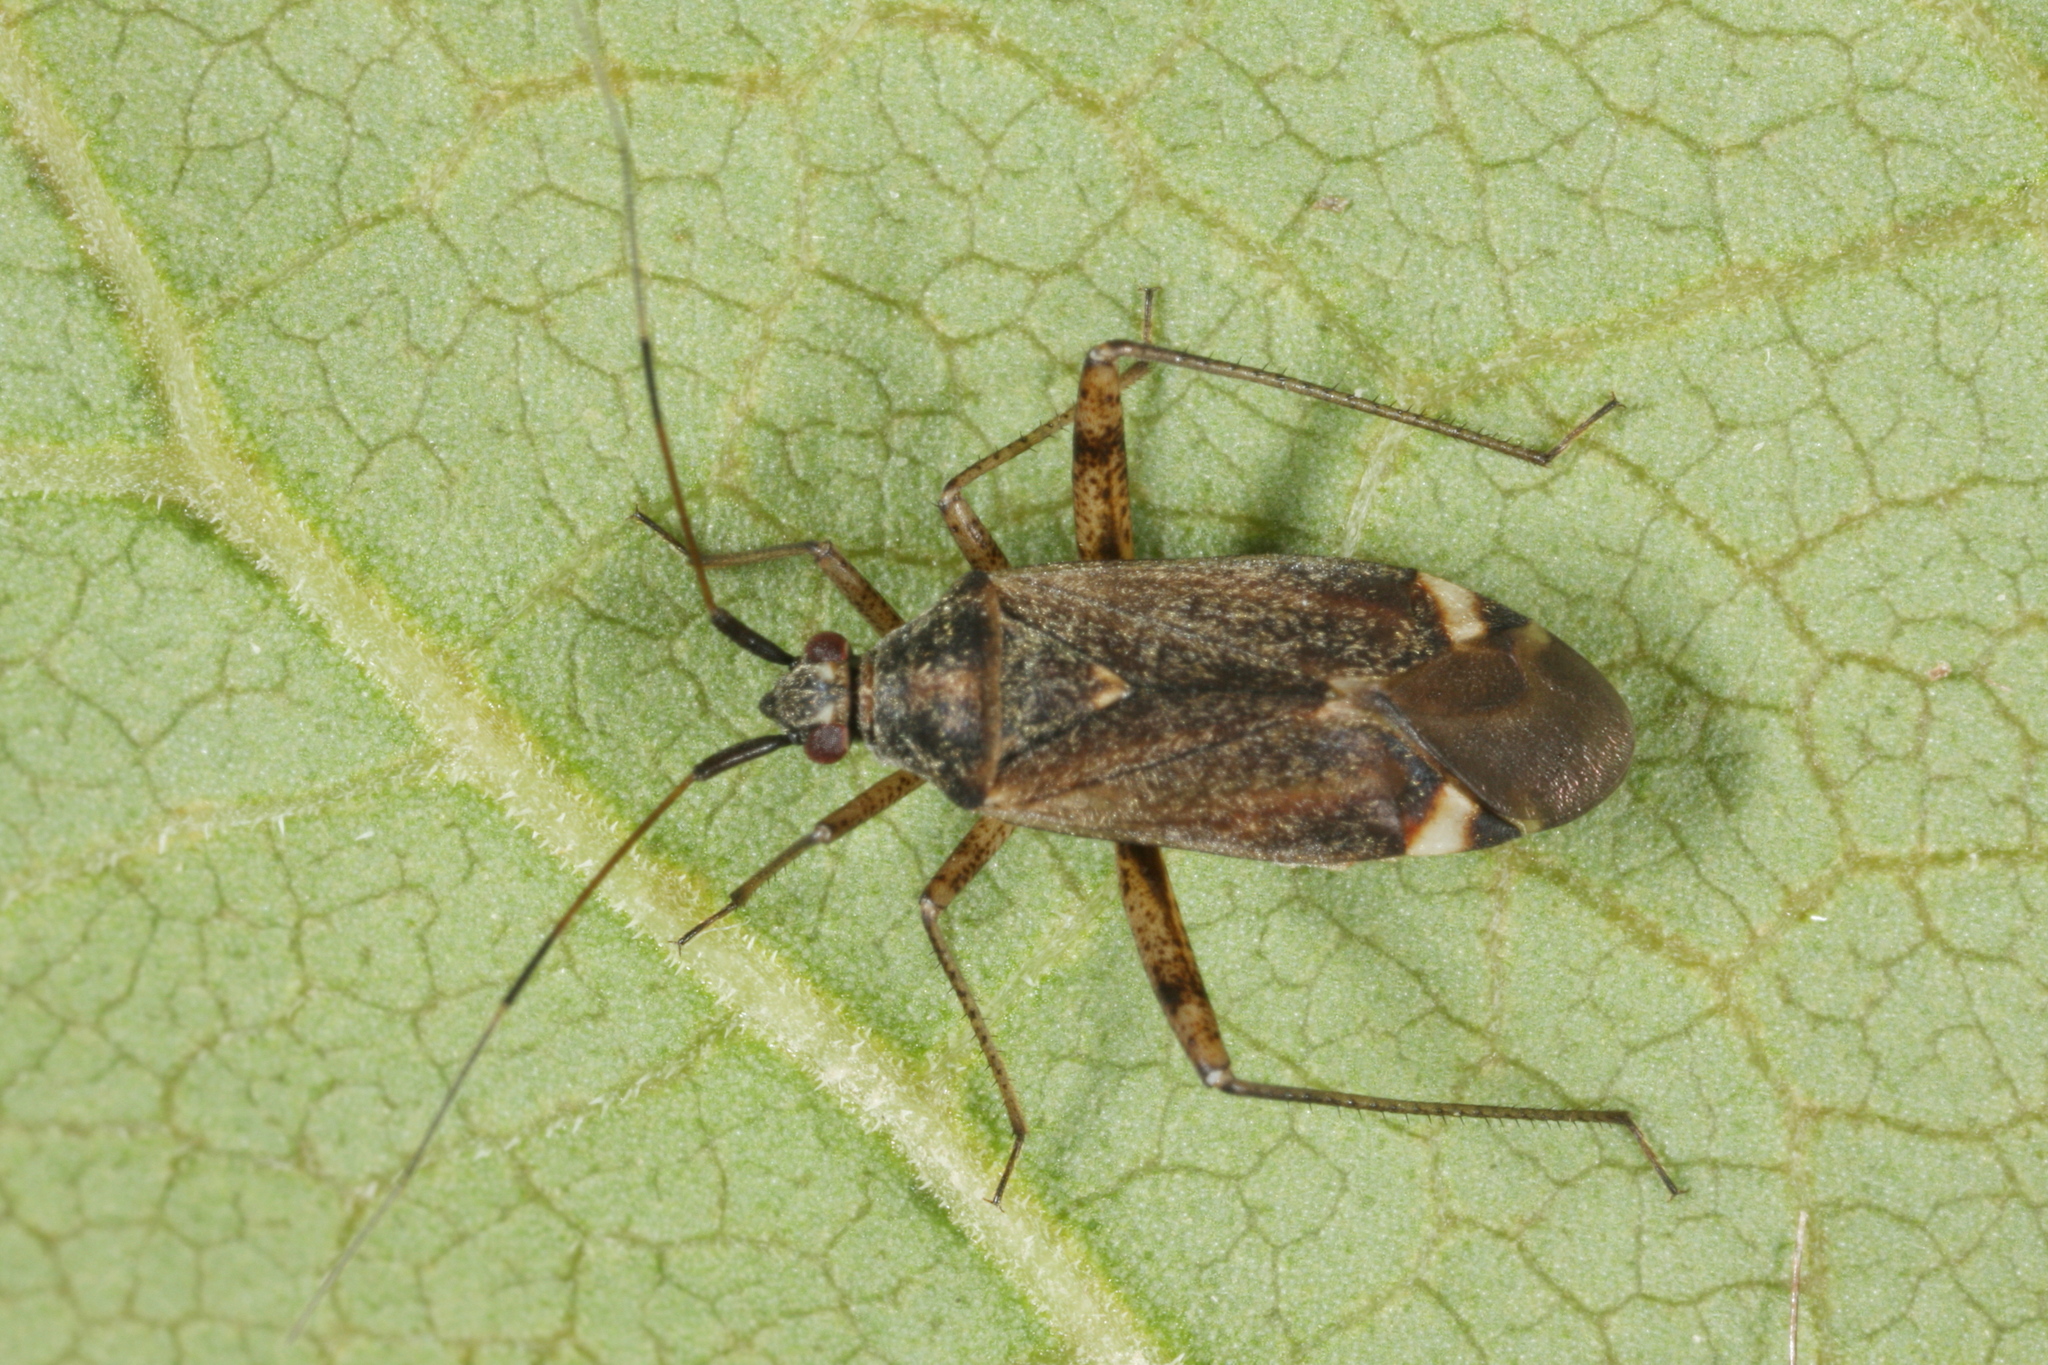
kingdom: Animalia
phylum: Arthropoda
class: Insecta
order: Hemiptera
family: Miridae
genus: Closterotomus
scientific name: Closterotomus fulvomaculatus
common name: Spotted plant bug
